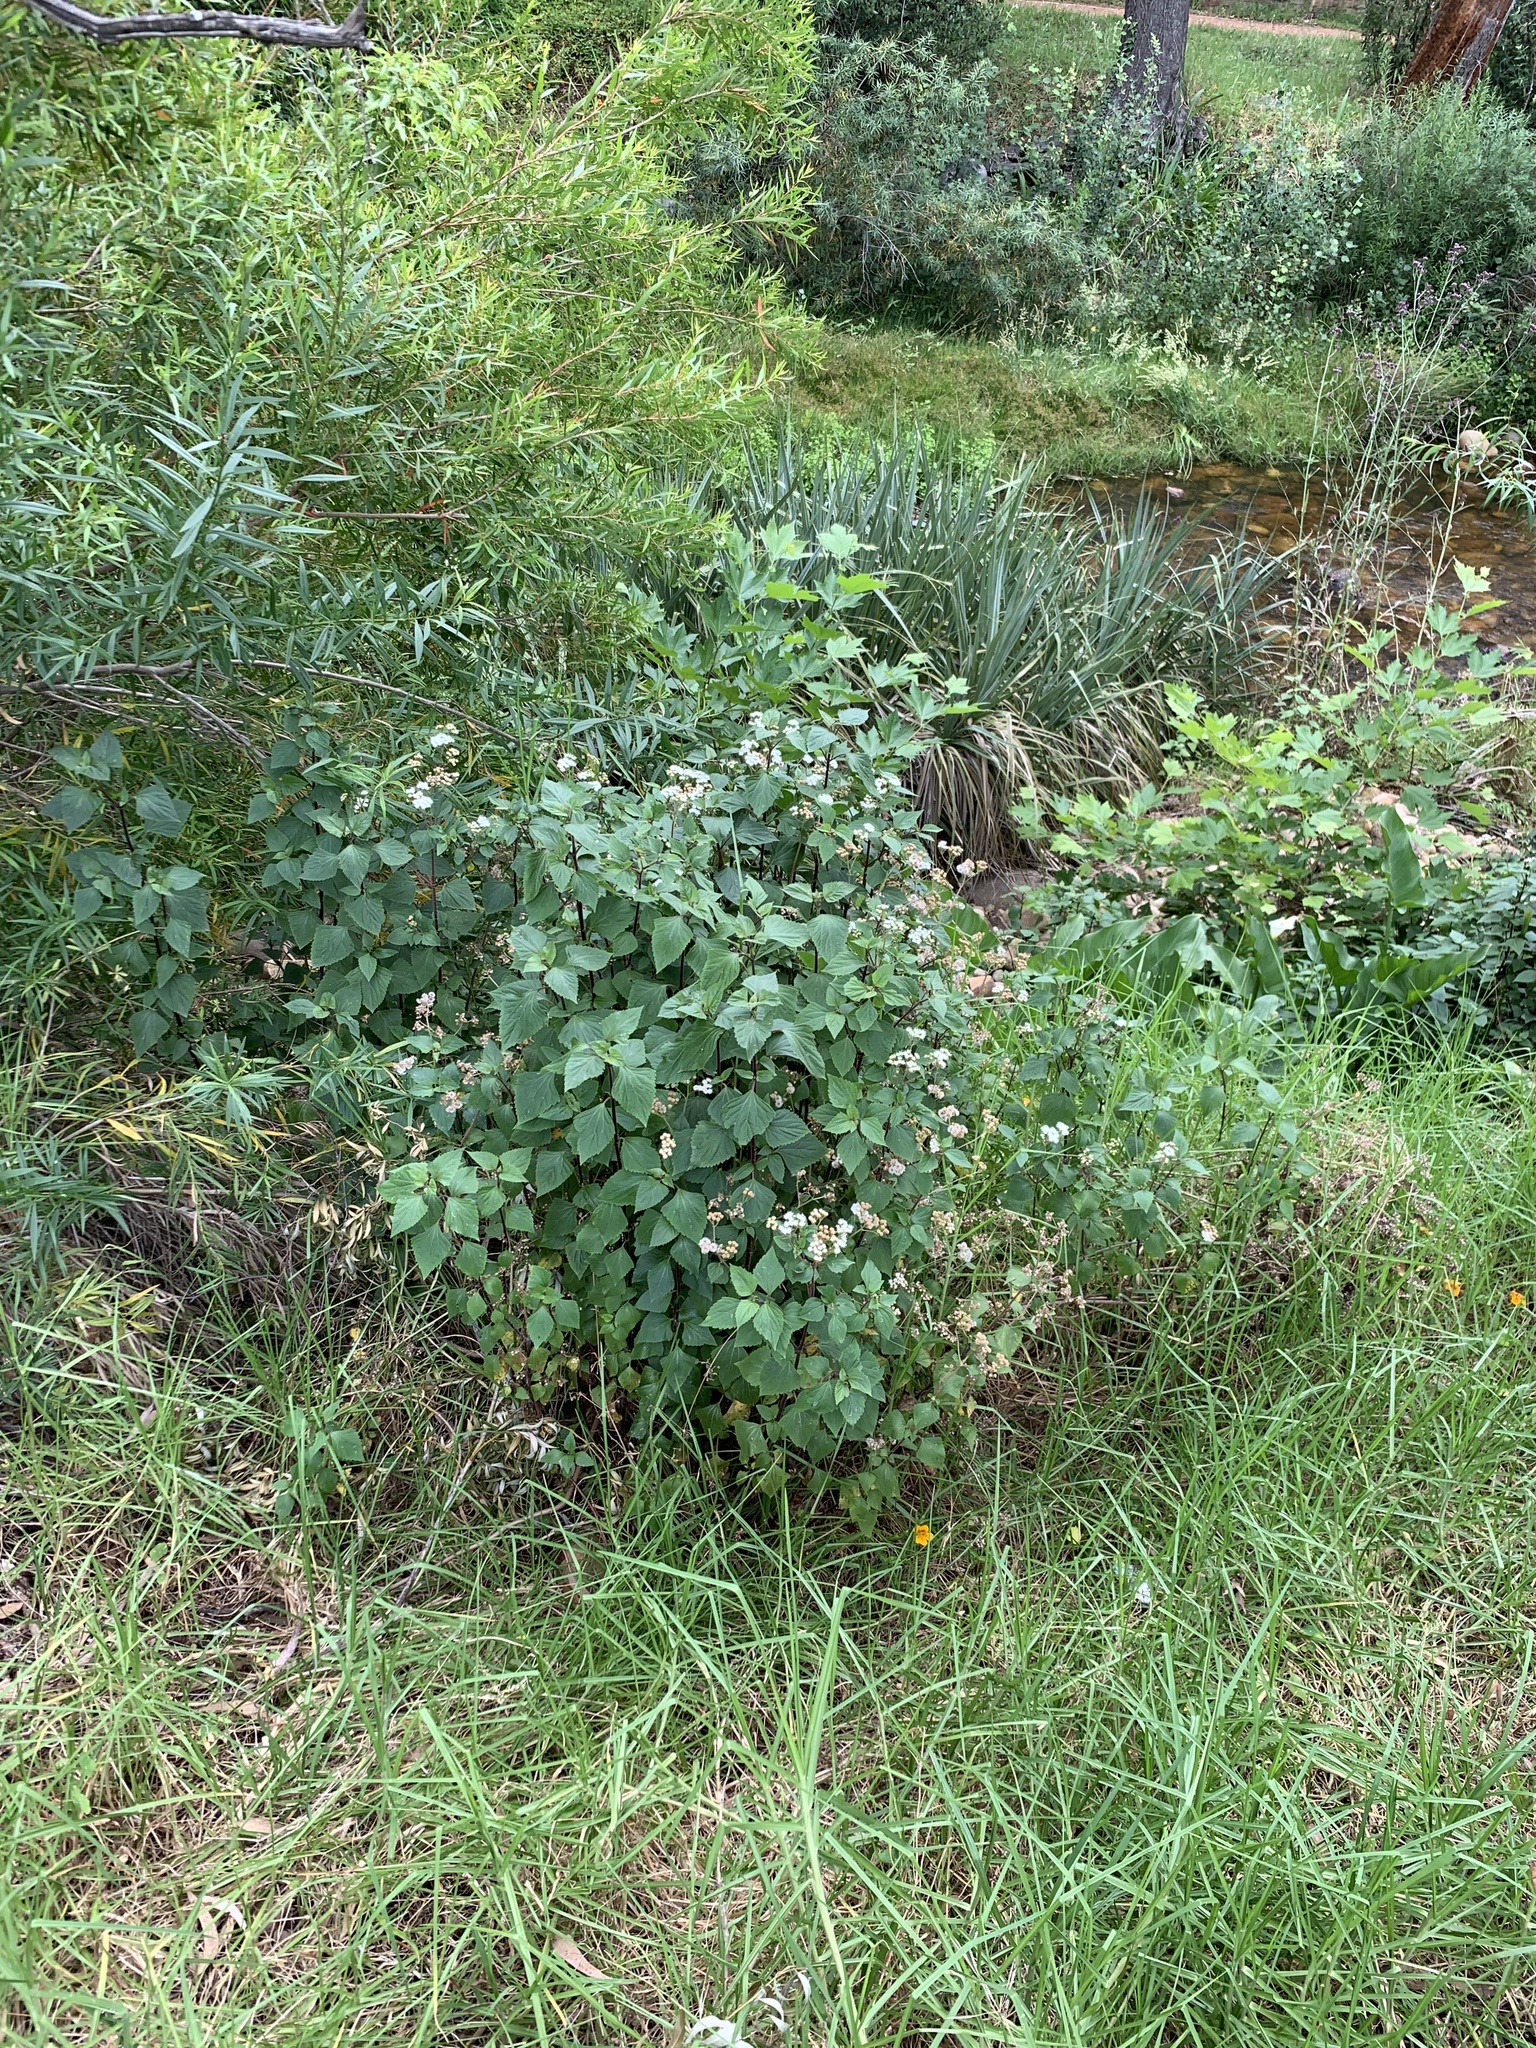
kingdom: Plantae
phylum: Tracheophyta
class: Magnoliopsida
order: Asterales
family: Asteraceae
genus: Ageratina
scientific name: Ageratina adenophora
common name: Sticky snakeroot
